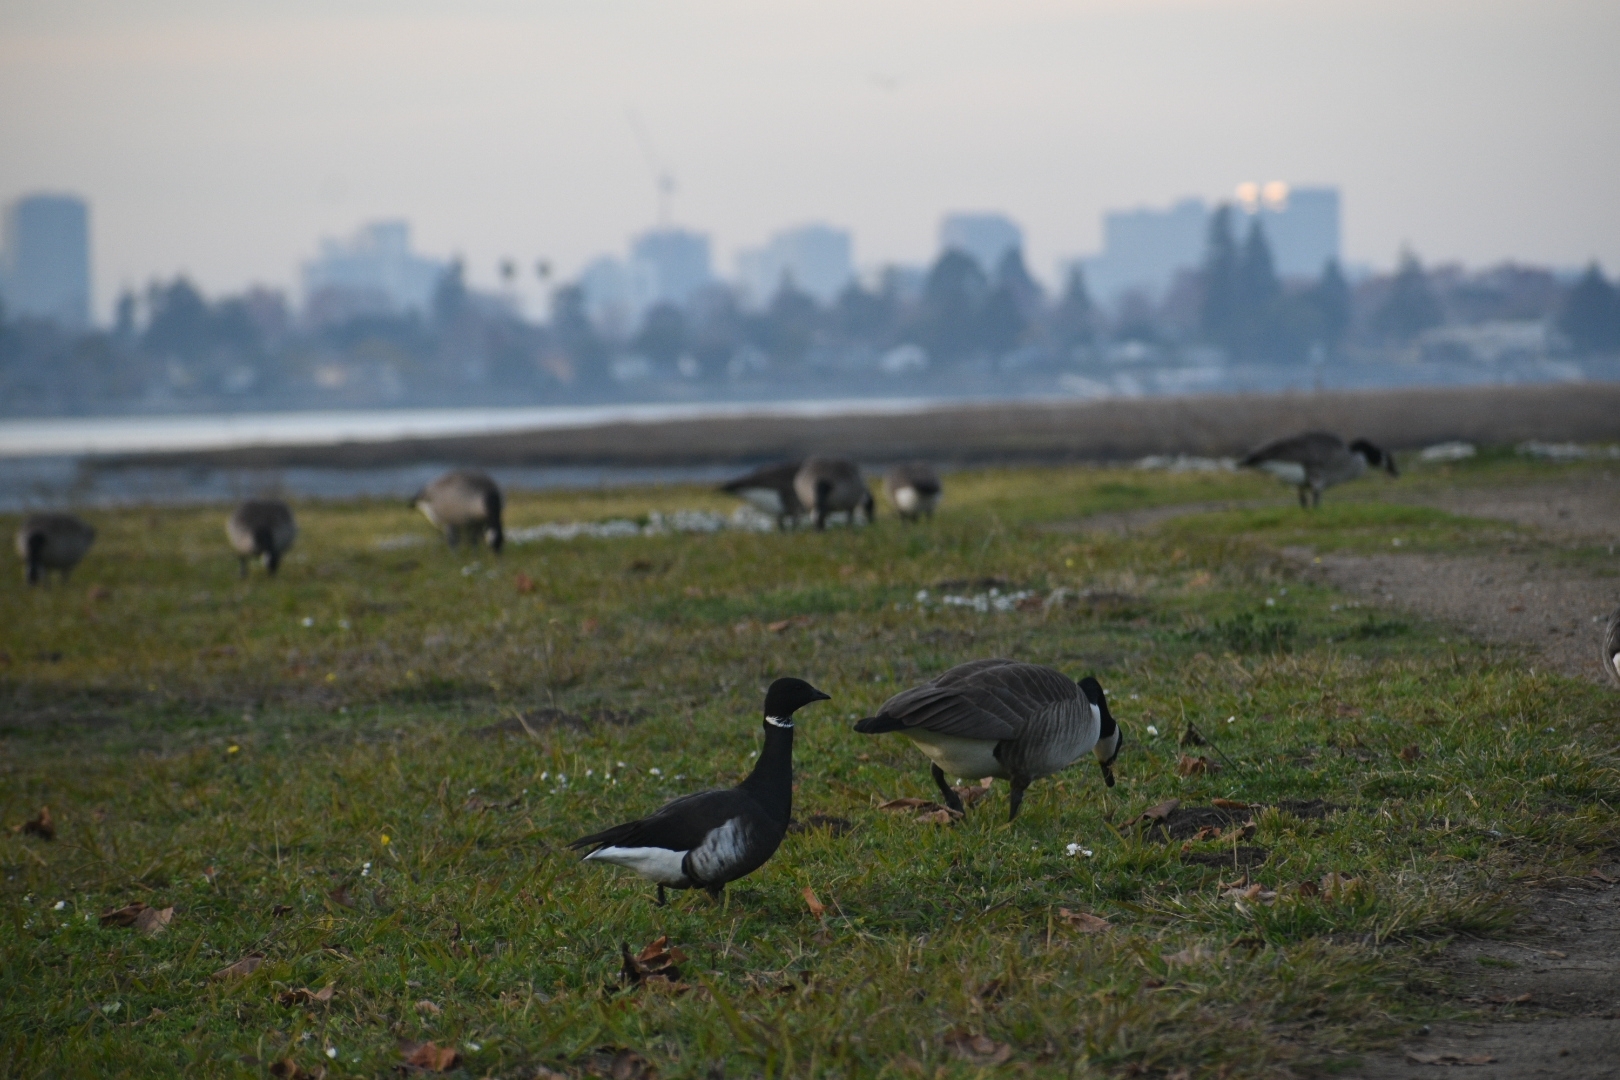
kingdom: Animalia
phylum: Chordata
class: Aves
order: Anseriformes
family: Anatidae
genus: Branta
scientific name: Branta bernicla
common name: Brant goose
